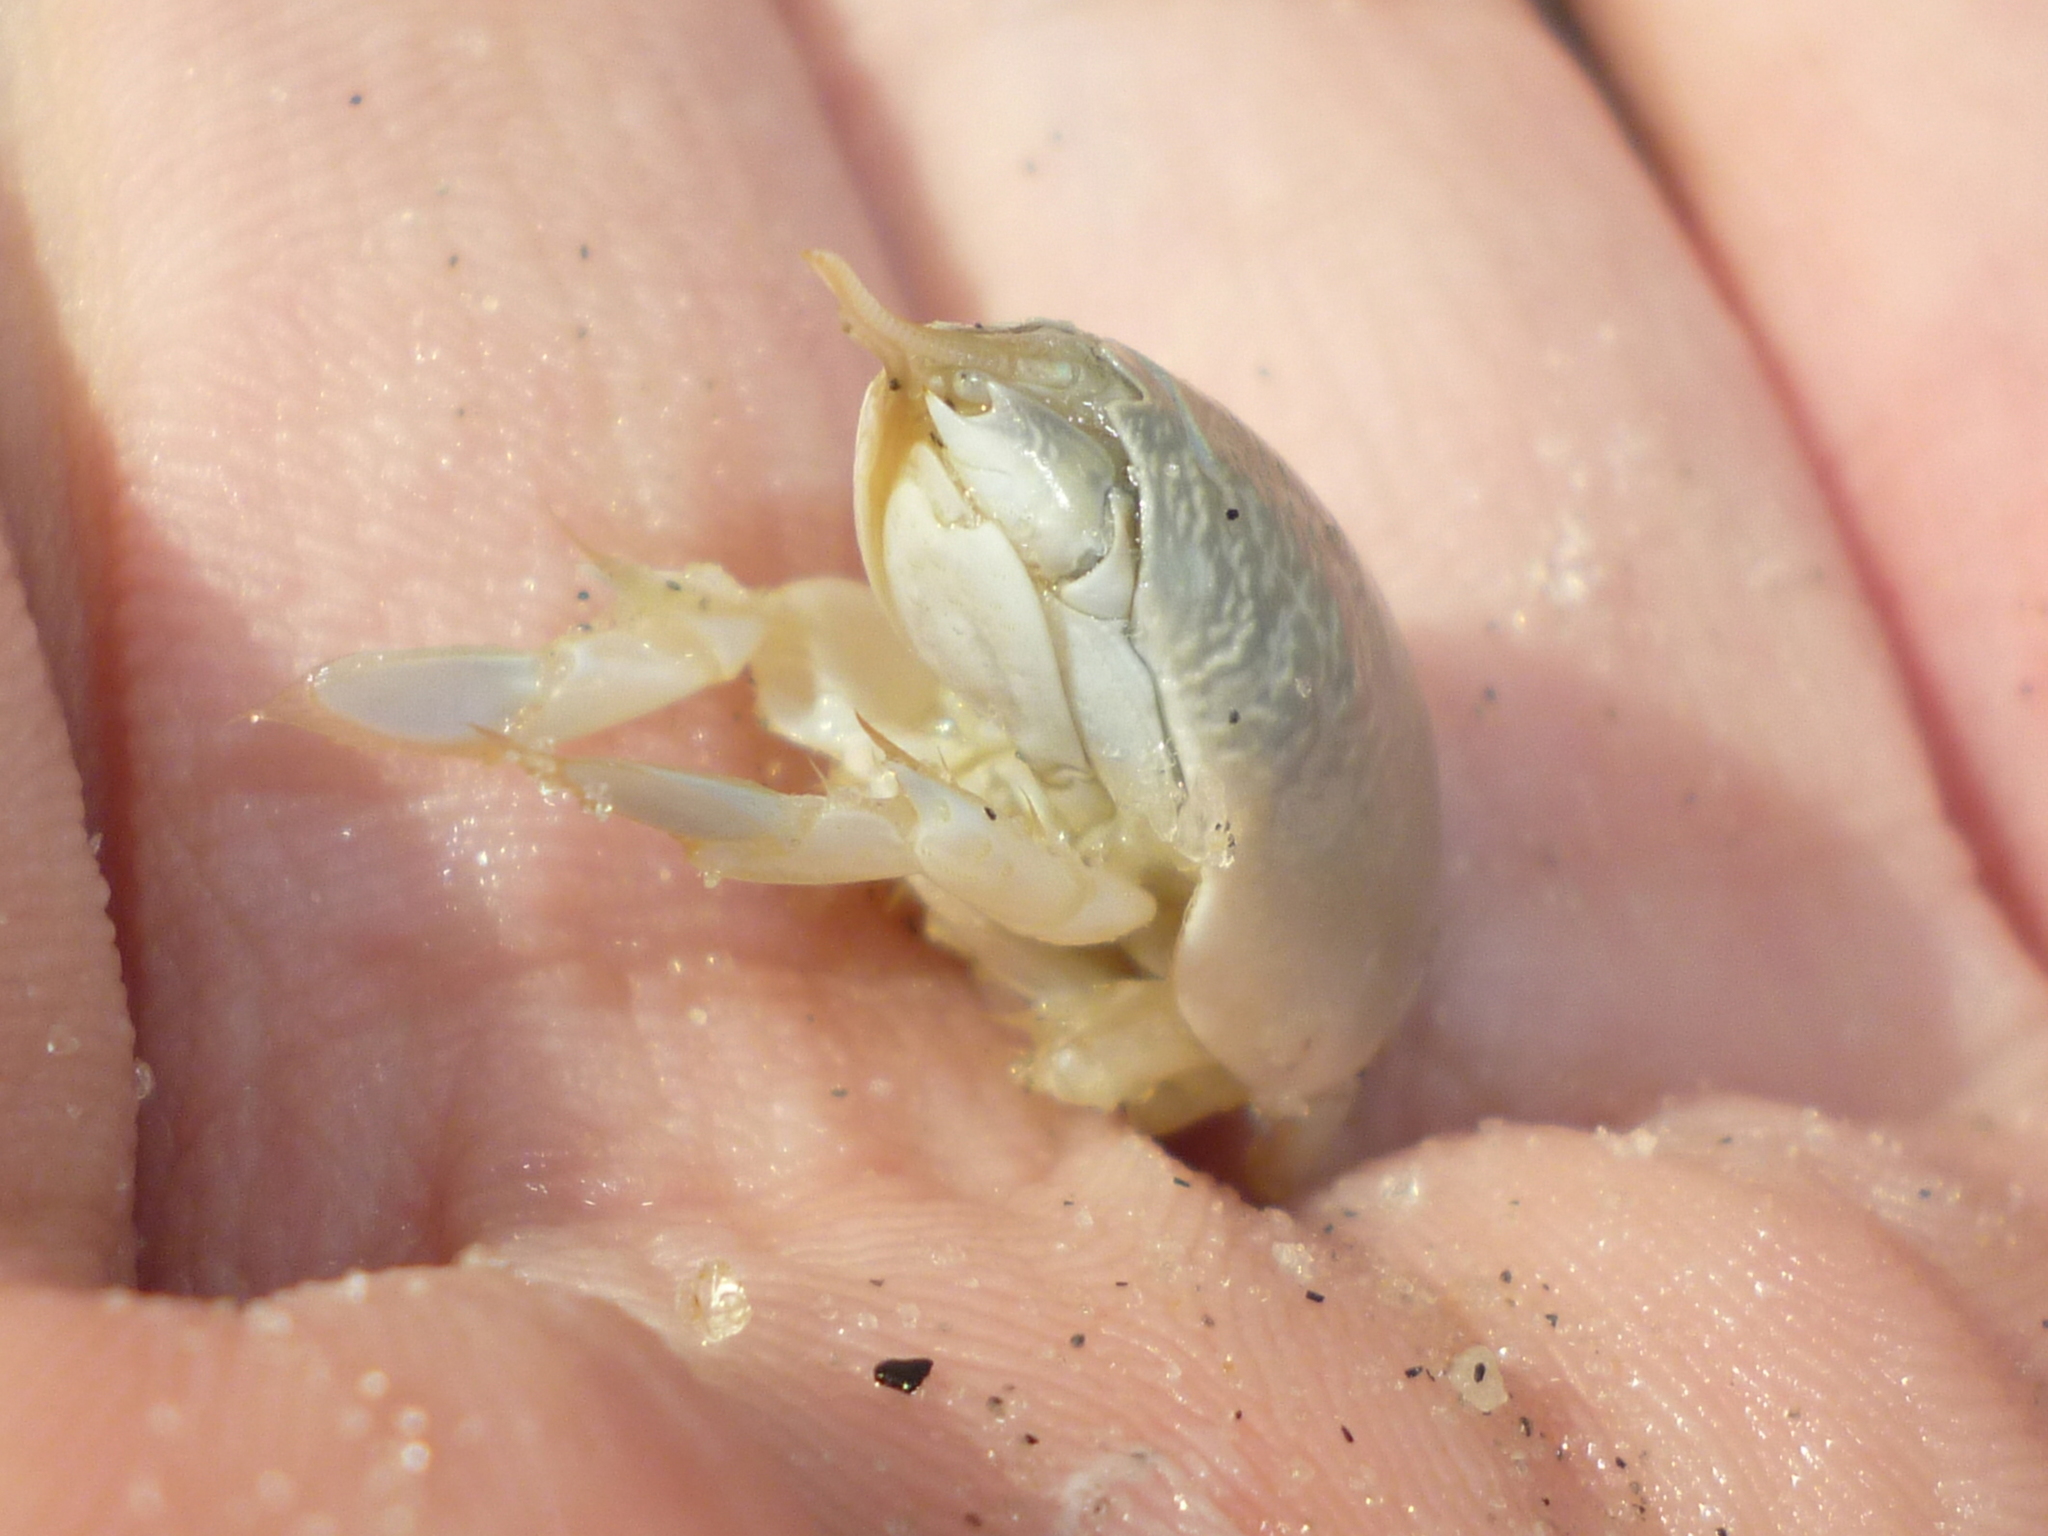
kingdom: Animalia
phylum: Arthropoda
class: Malacostraca
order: Decapoda
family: Hippidae
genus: Emerita
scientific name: Emerita talpoida
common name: Atlantic sand crab
